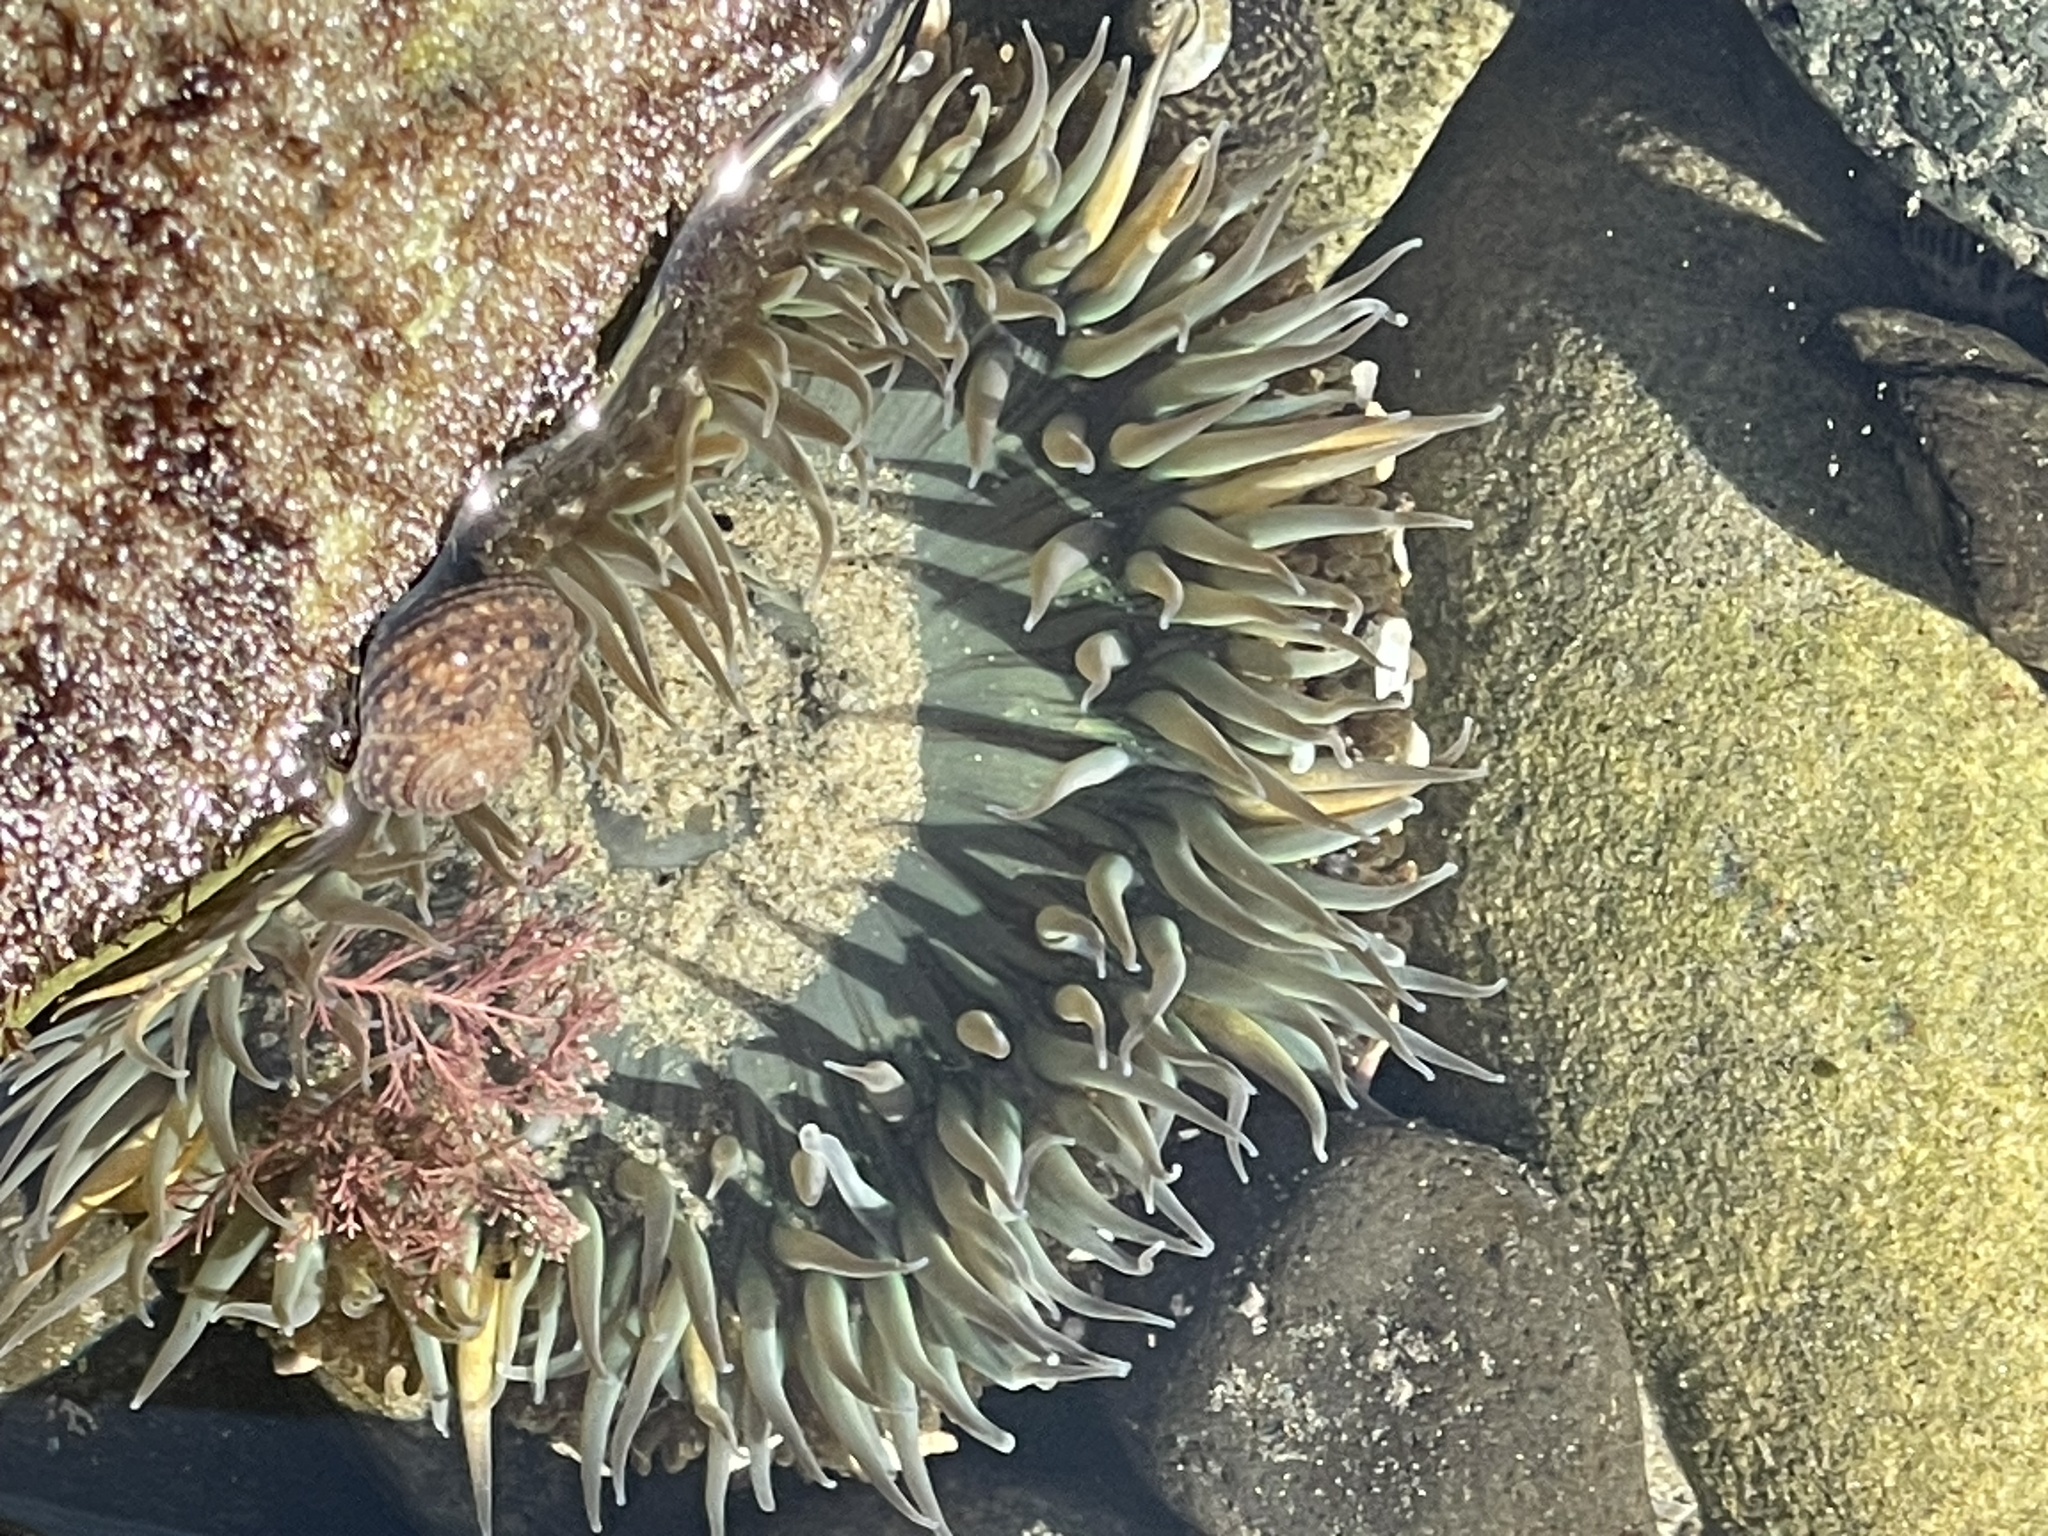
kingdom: Animalia
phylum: Cnidaria
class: Anthozoa
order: Actiniaria
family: Actiniidae
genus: Anthopleura
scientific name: Anthopleura sola
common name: Sun anemone
